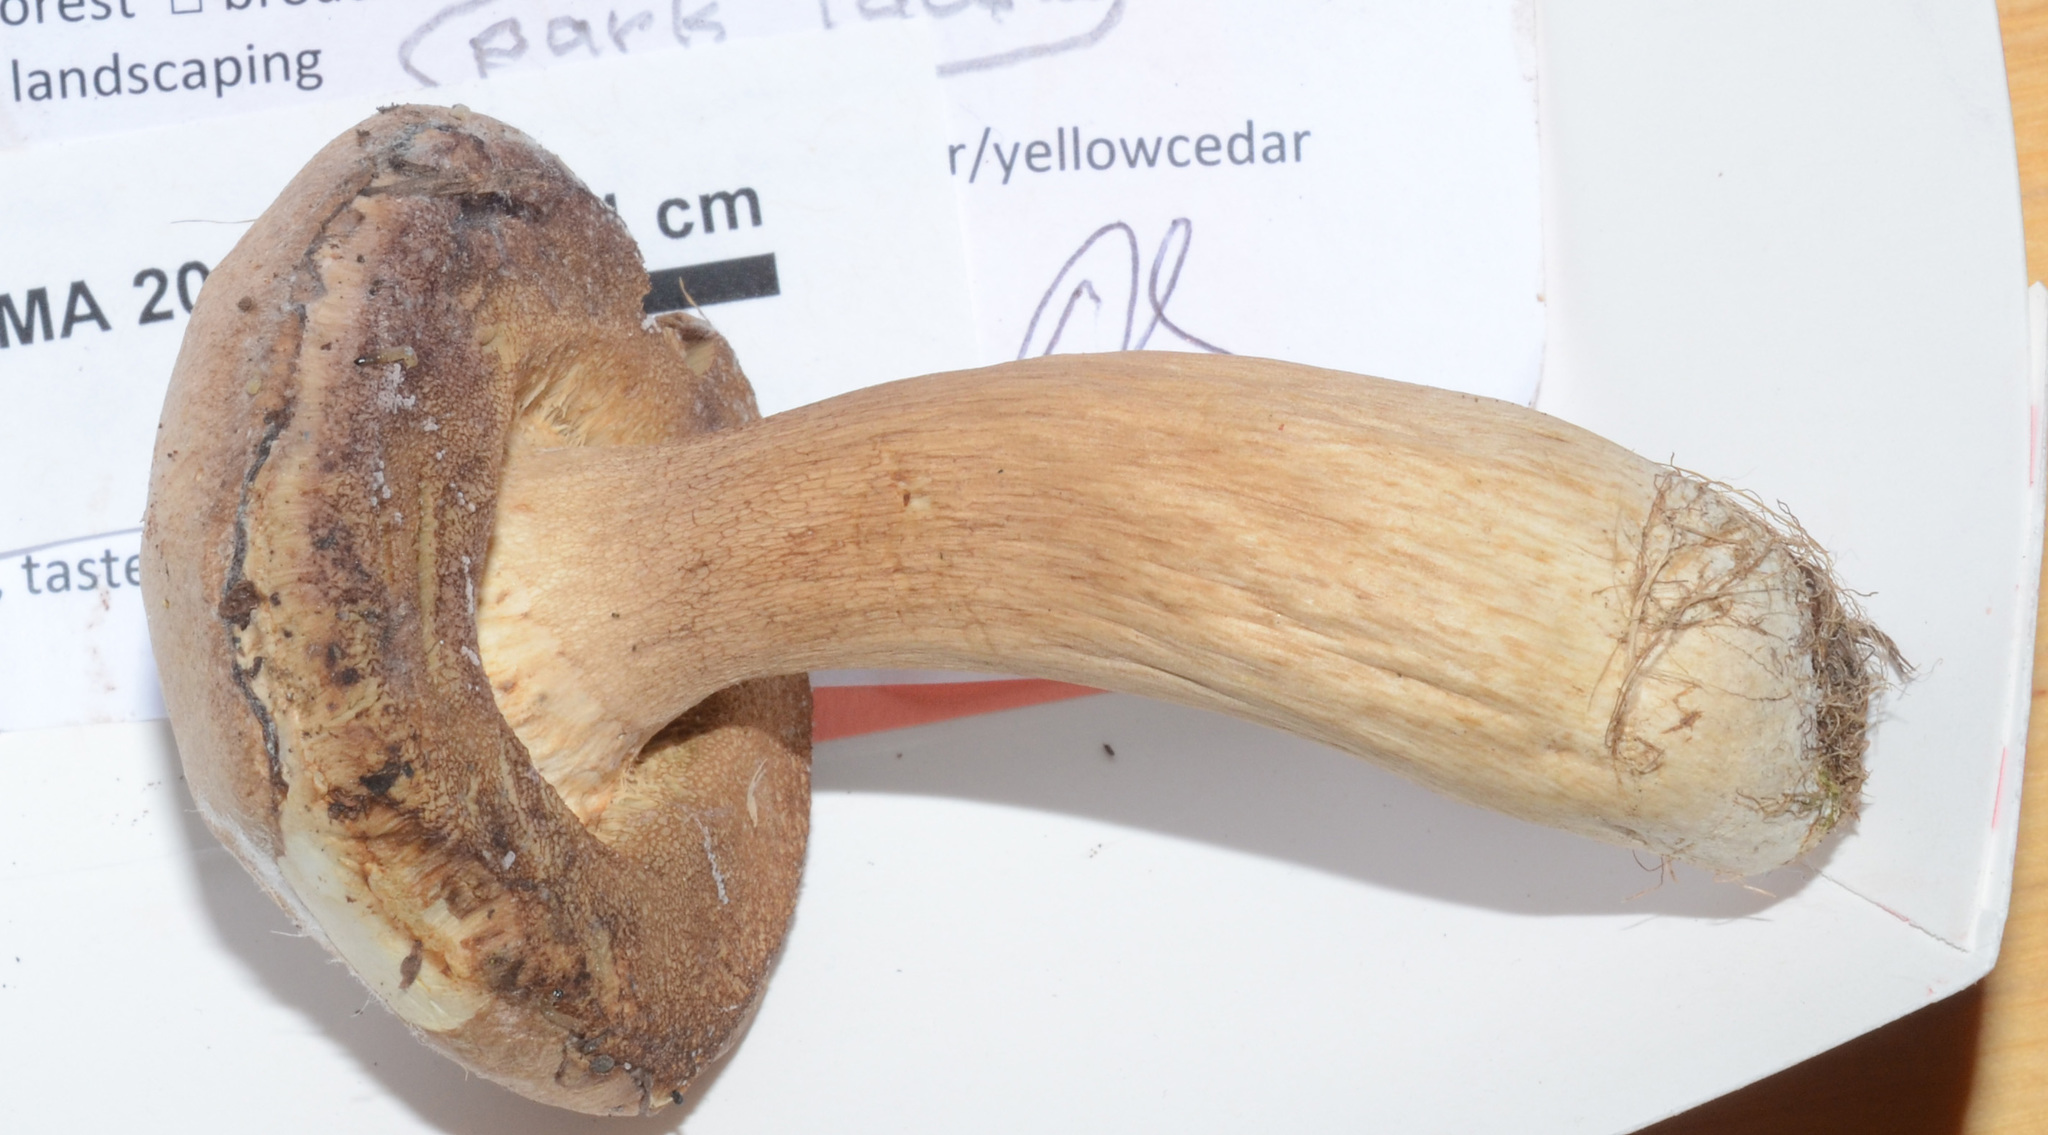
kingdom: Fungi
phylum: Basidiomycota
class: Agaricomycetes
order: Boletales
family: Boletaceae
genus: Boletus
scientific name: Boletus barrowsii
